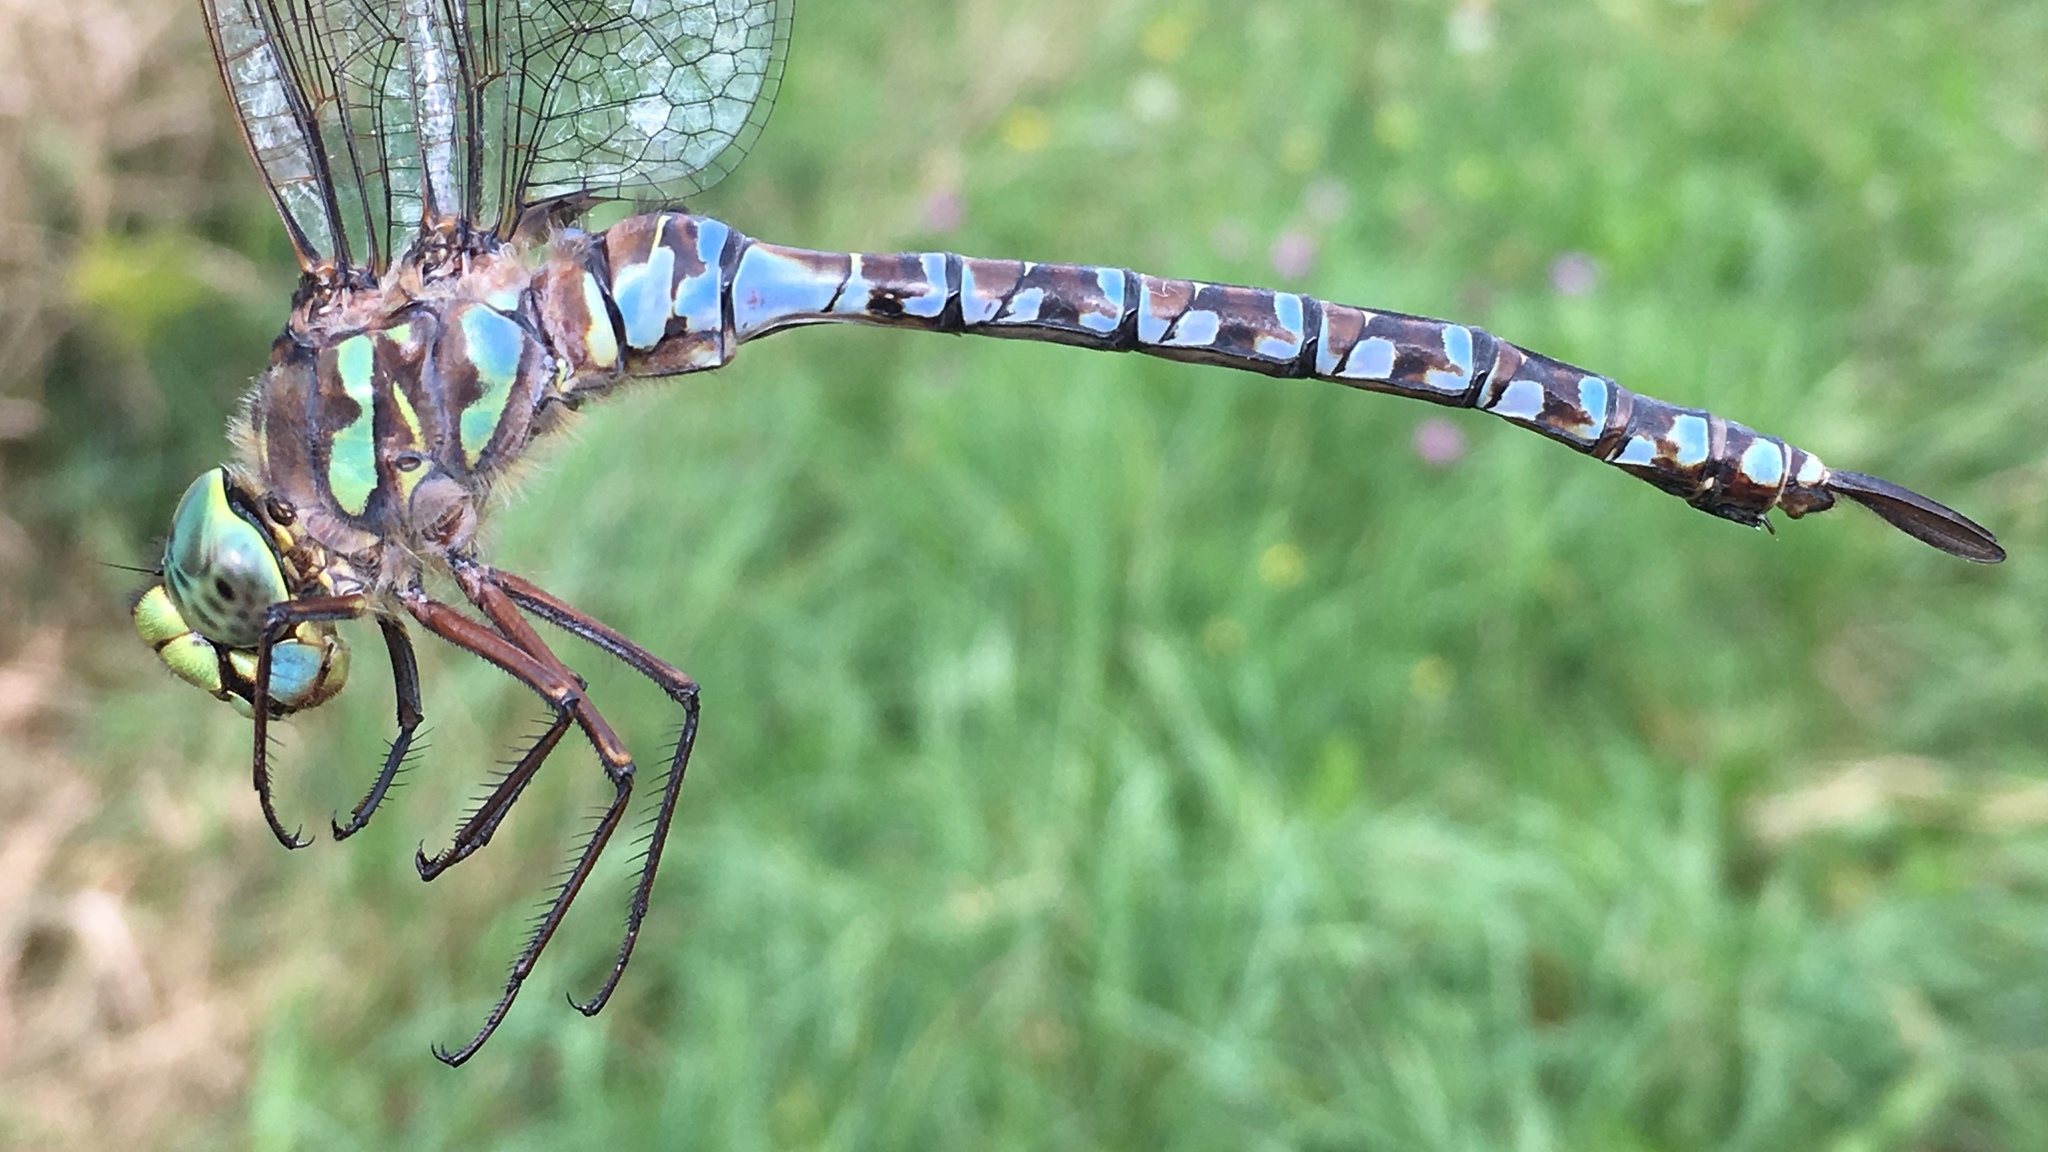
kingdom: Animalia
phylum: Arthropoda
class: Insecta
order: Odonata
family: Aeshnidae
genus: Aeshna
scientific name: Aeshna eremita
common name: Lake darner
